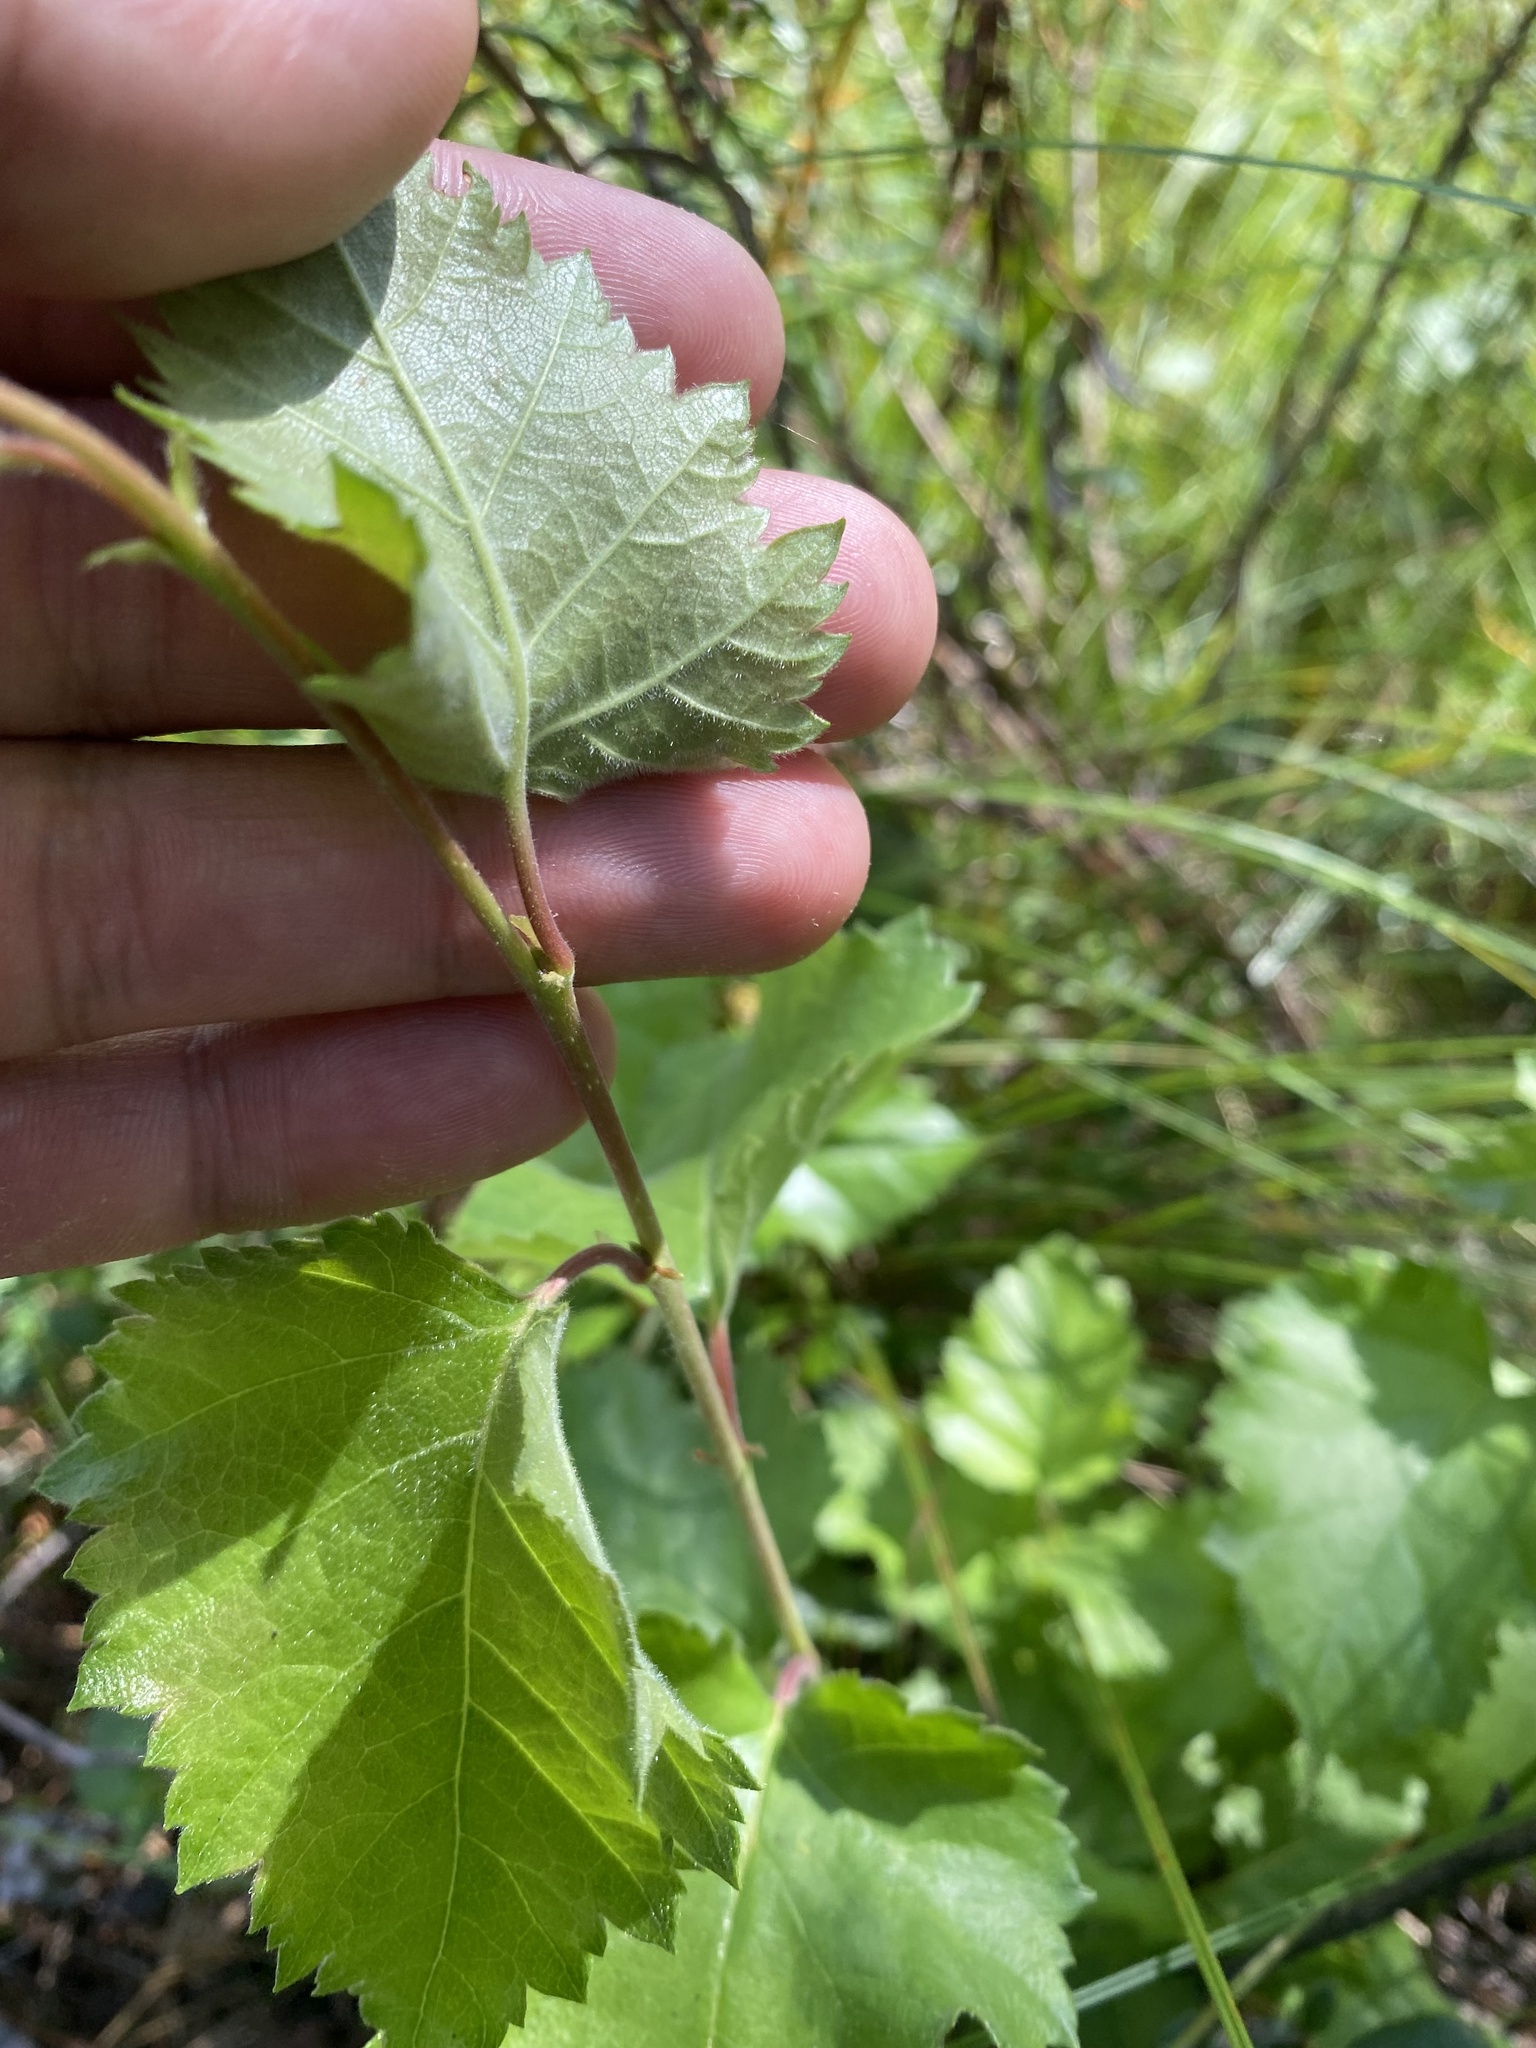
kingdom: Plantae
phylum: Tracheophyta
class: Magnoliopsida
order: Fagales
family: Betulaceae
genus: Betula
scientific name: Betula pubescens
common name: Downy birch
